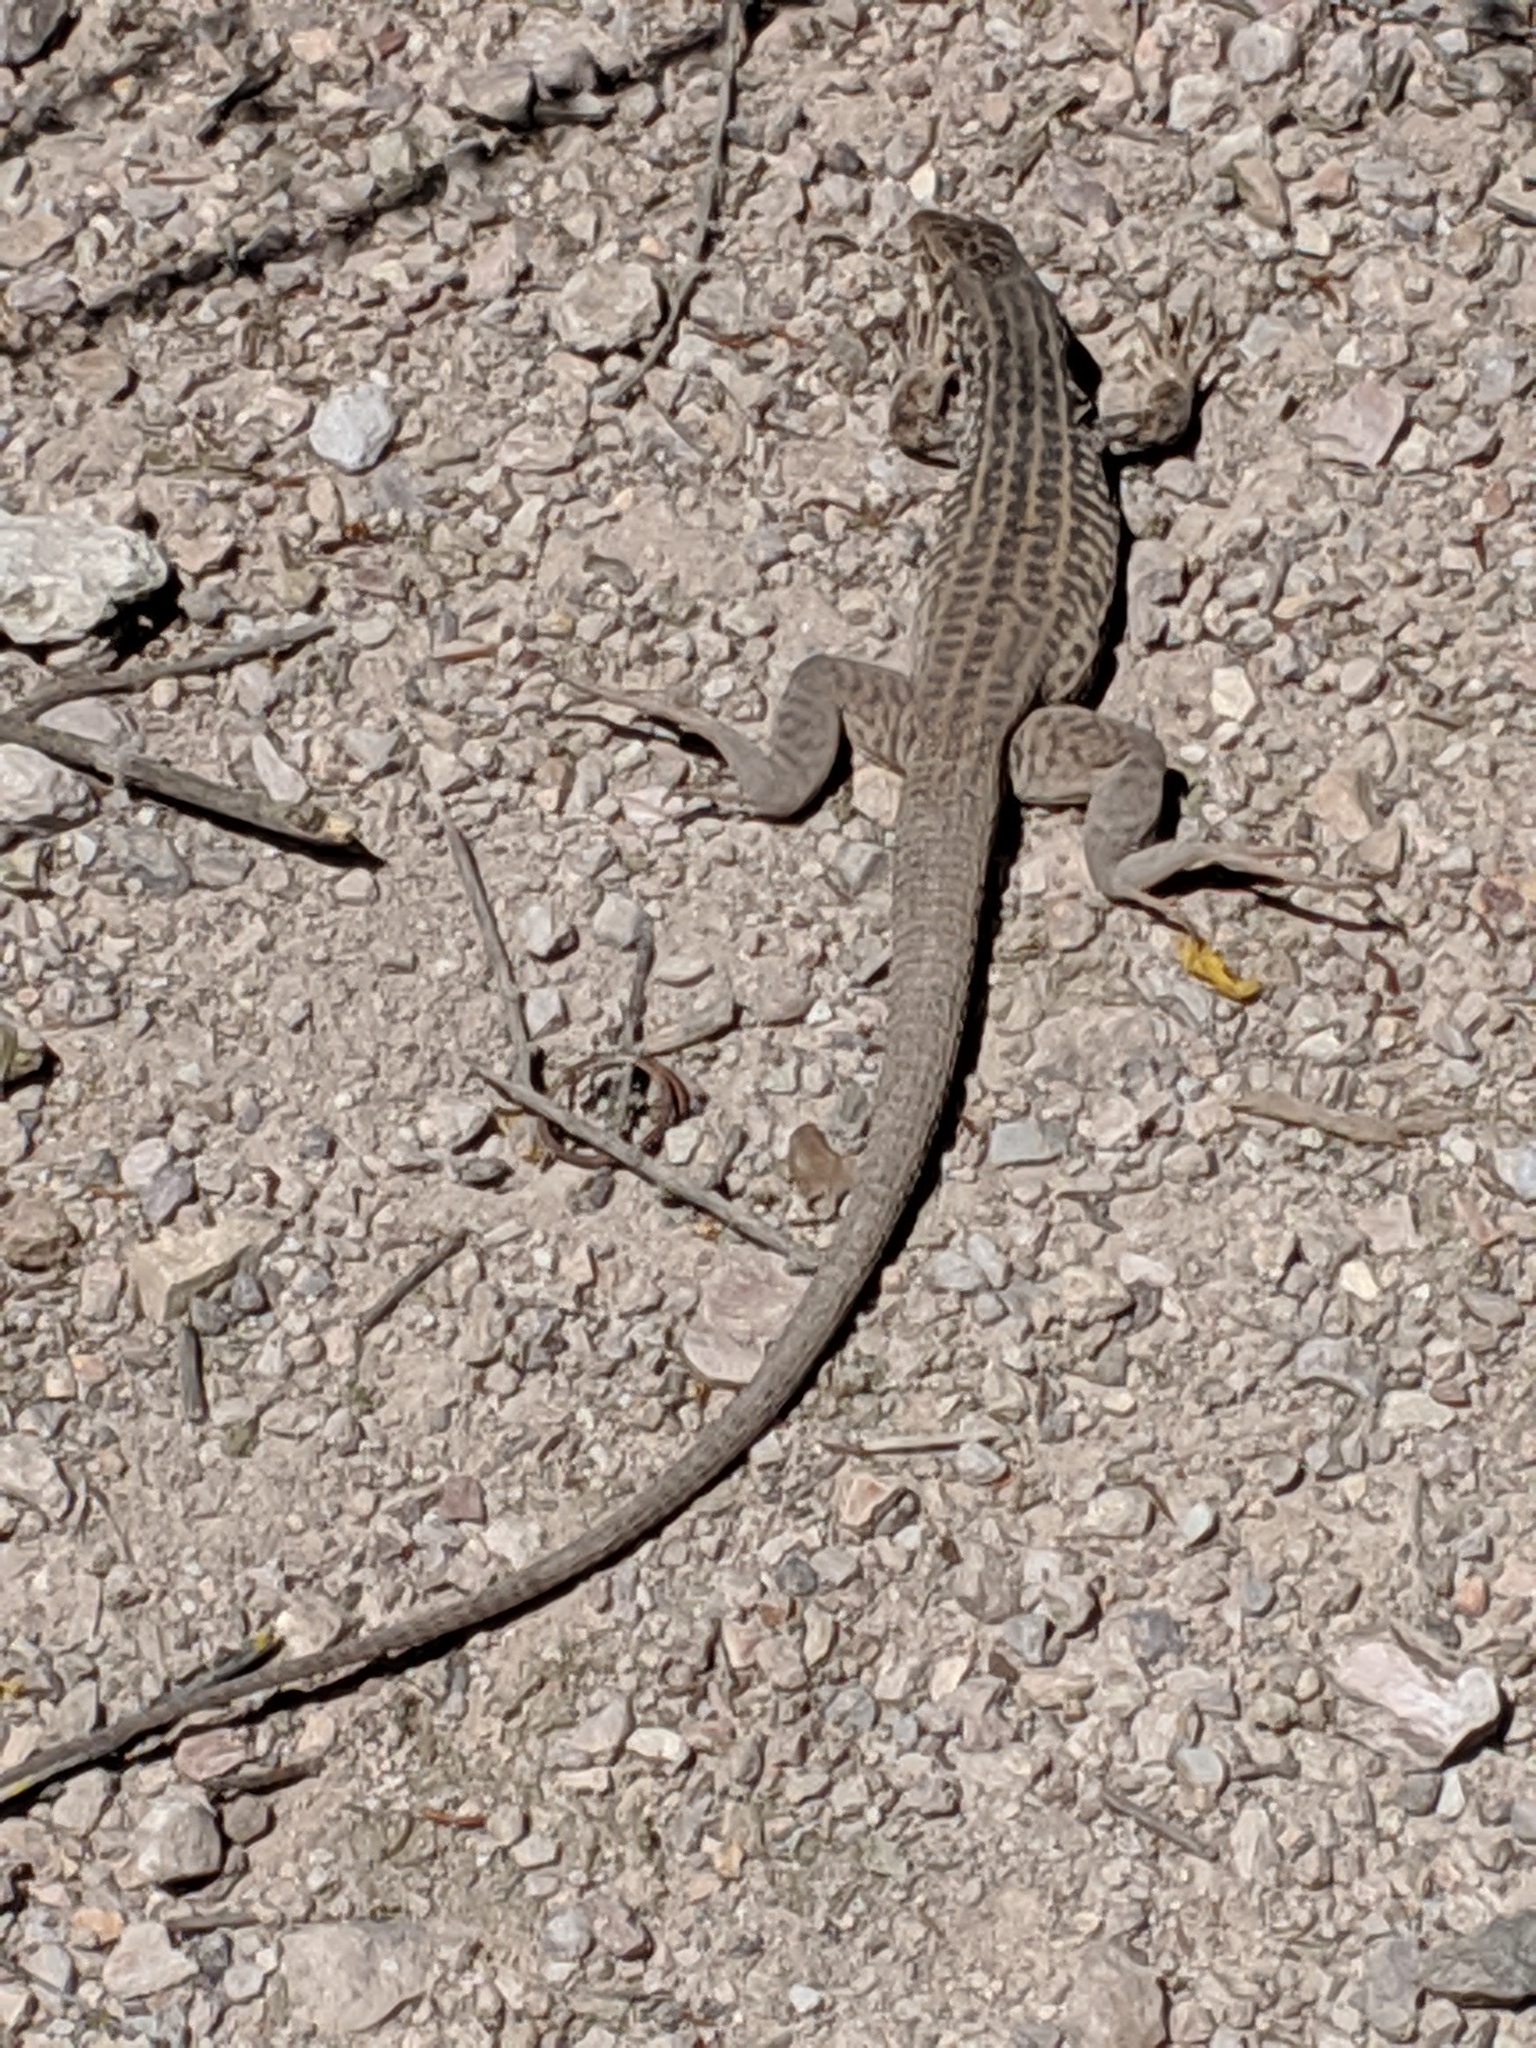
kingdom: Animalia
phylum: Chordata
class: Squamata
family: Teiidae
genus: Aspidoscelis
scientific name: Aspidoscelis tigris
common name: Tiger whiptail
